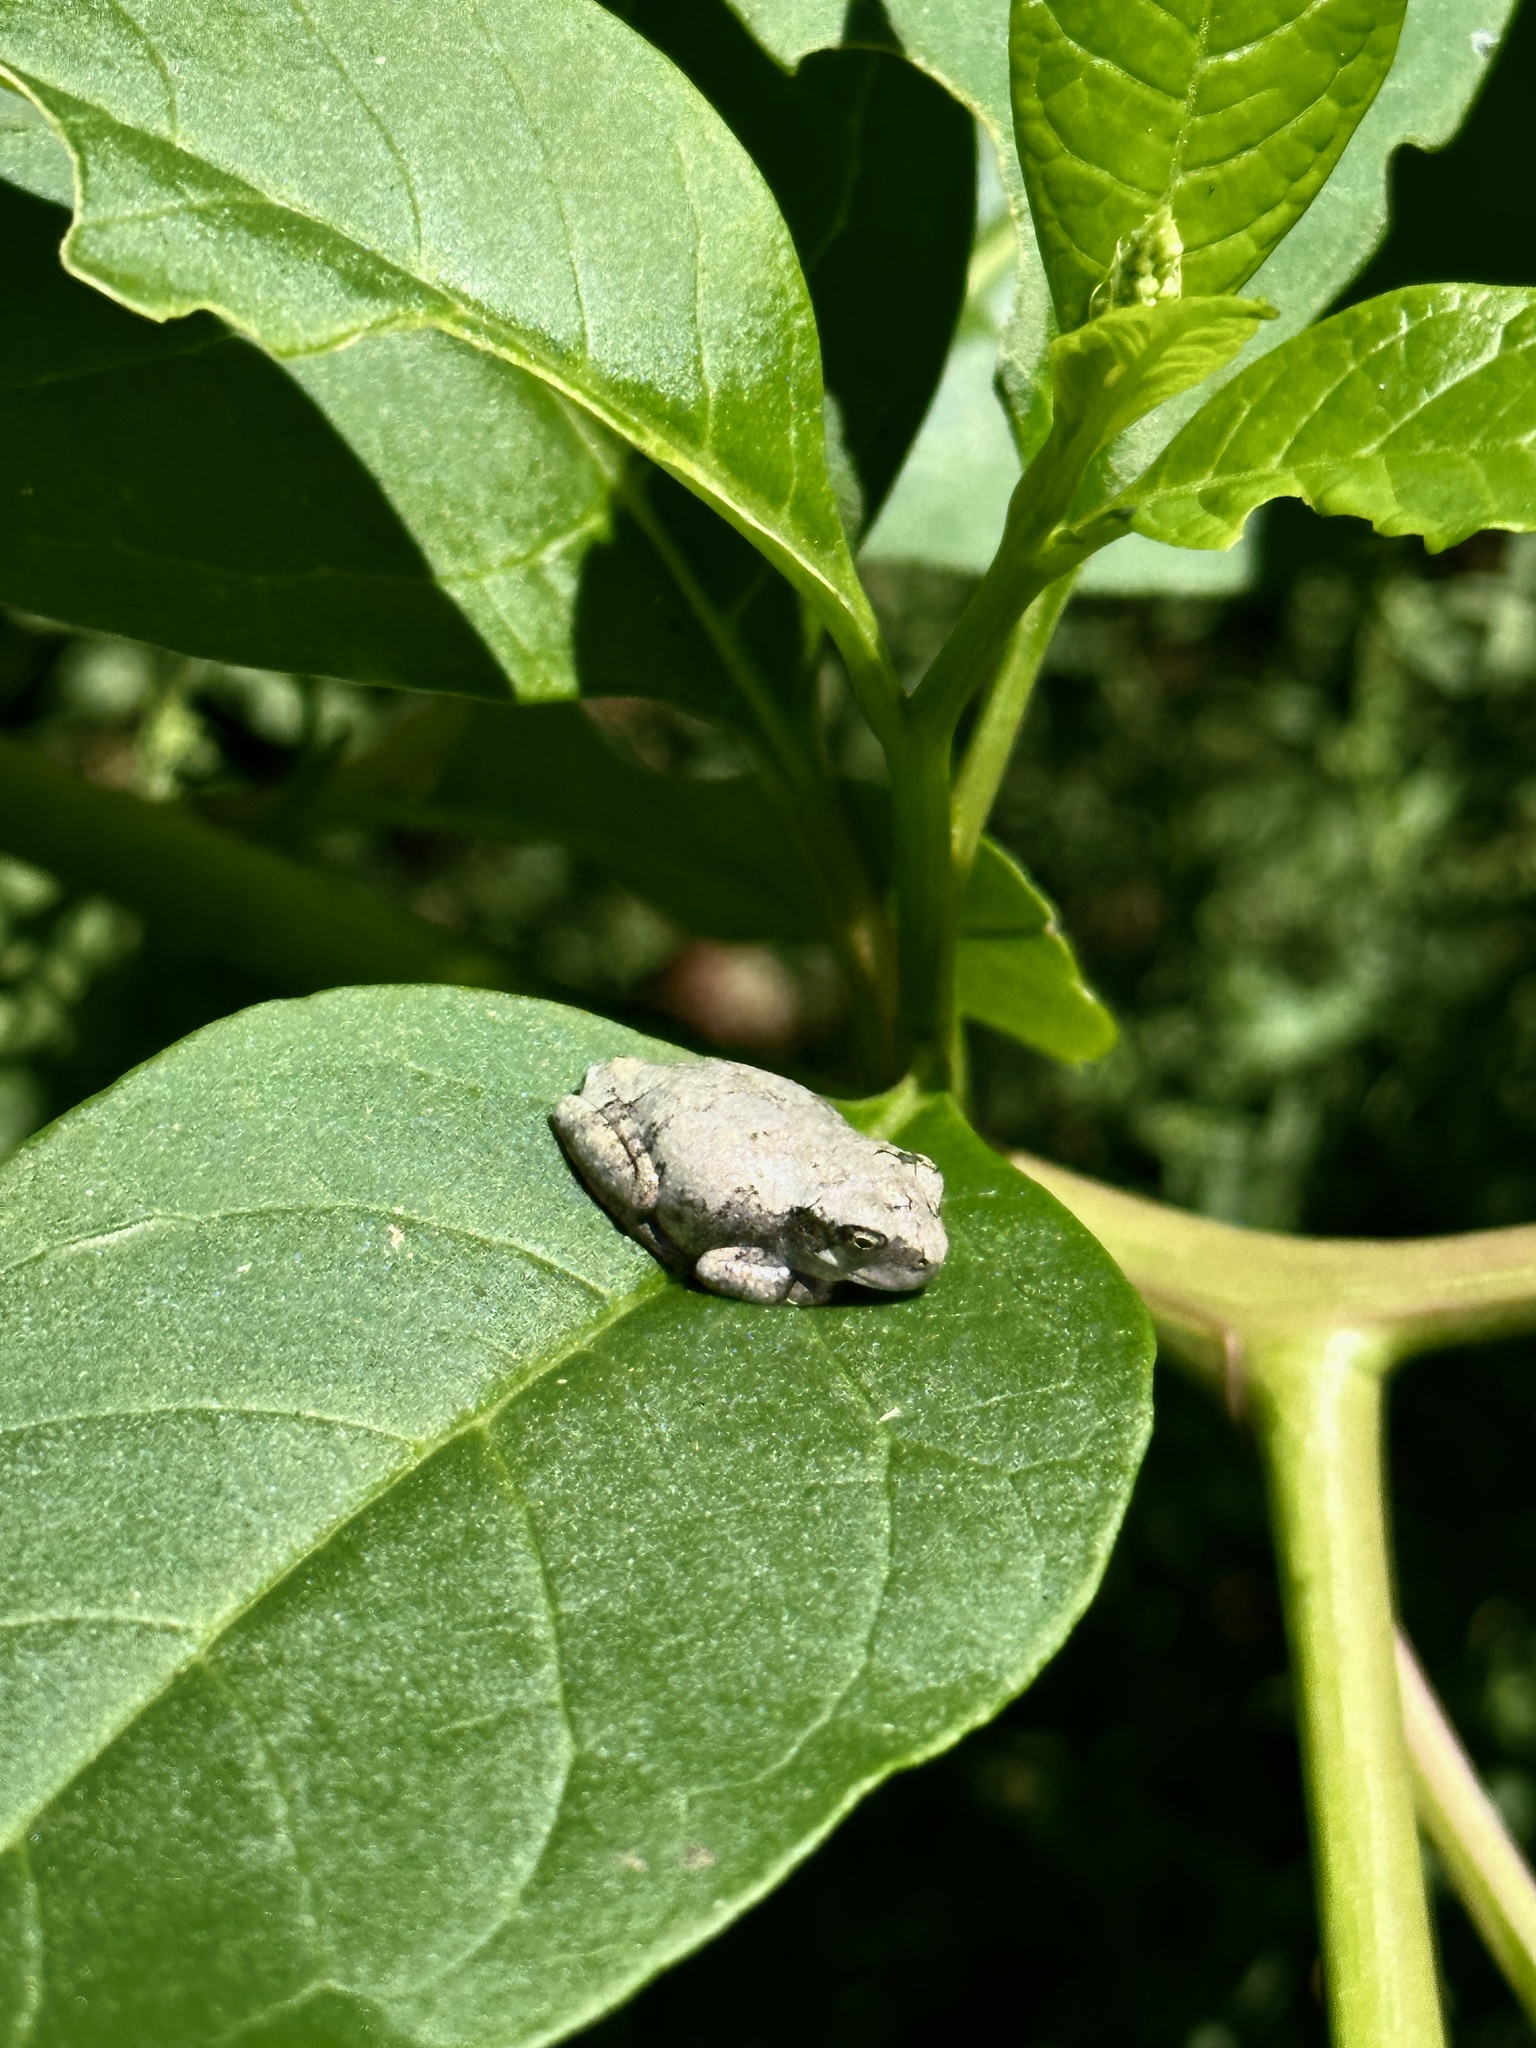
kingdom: Animalia
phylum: Chordata
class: Amphibia
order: Anura
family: Hylidae
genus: Dryophytes
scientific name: Dryophytes chrysoscelis
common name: Cope's gray treefrog
